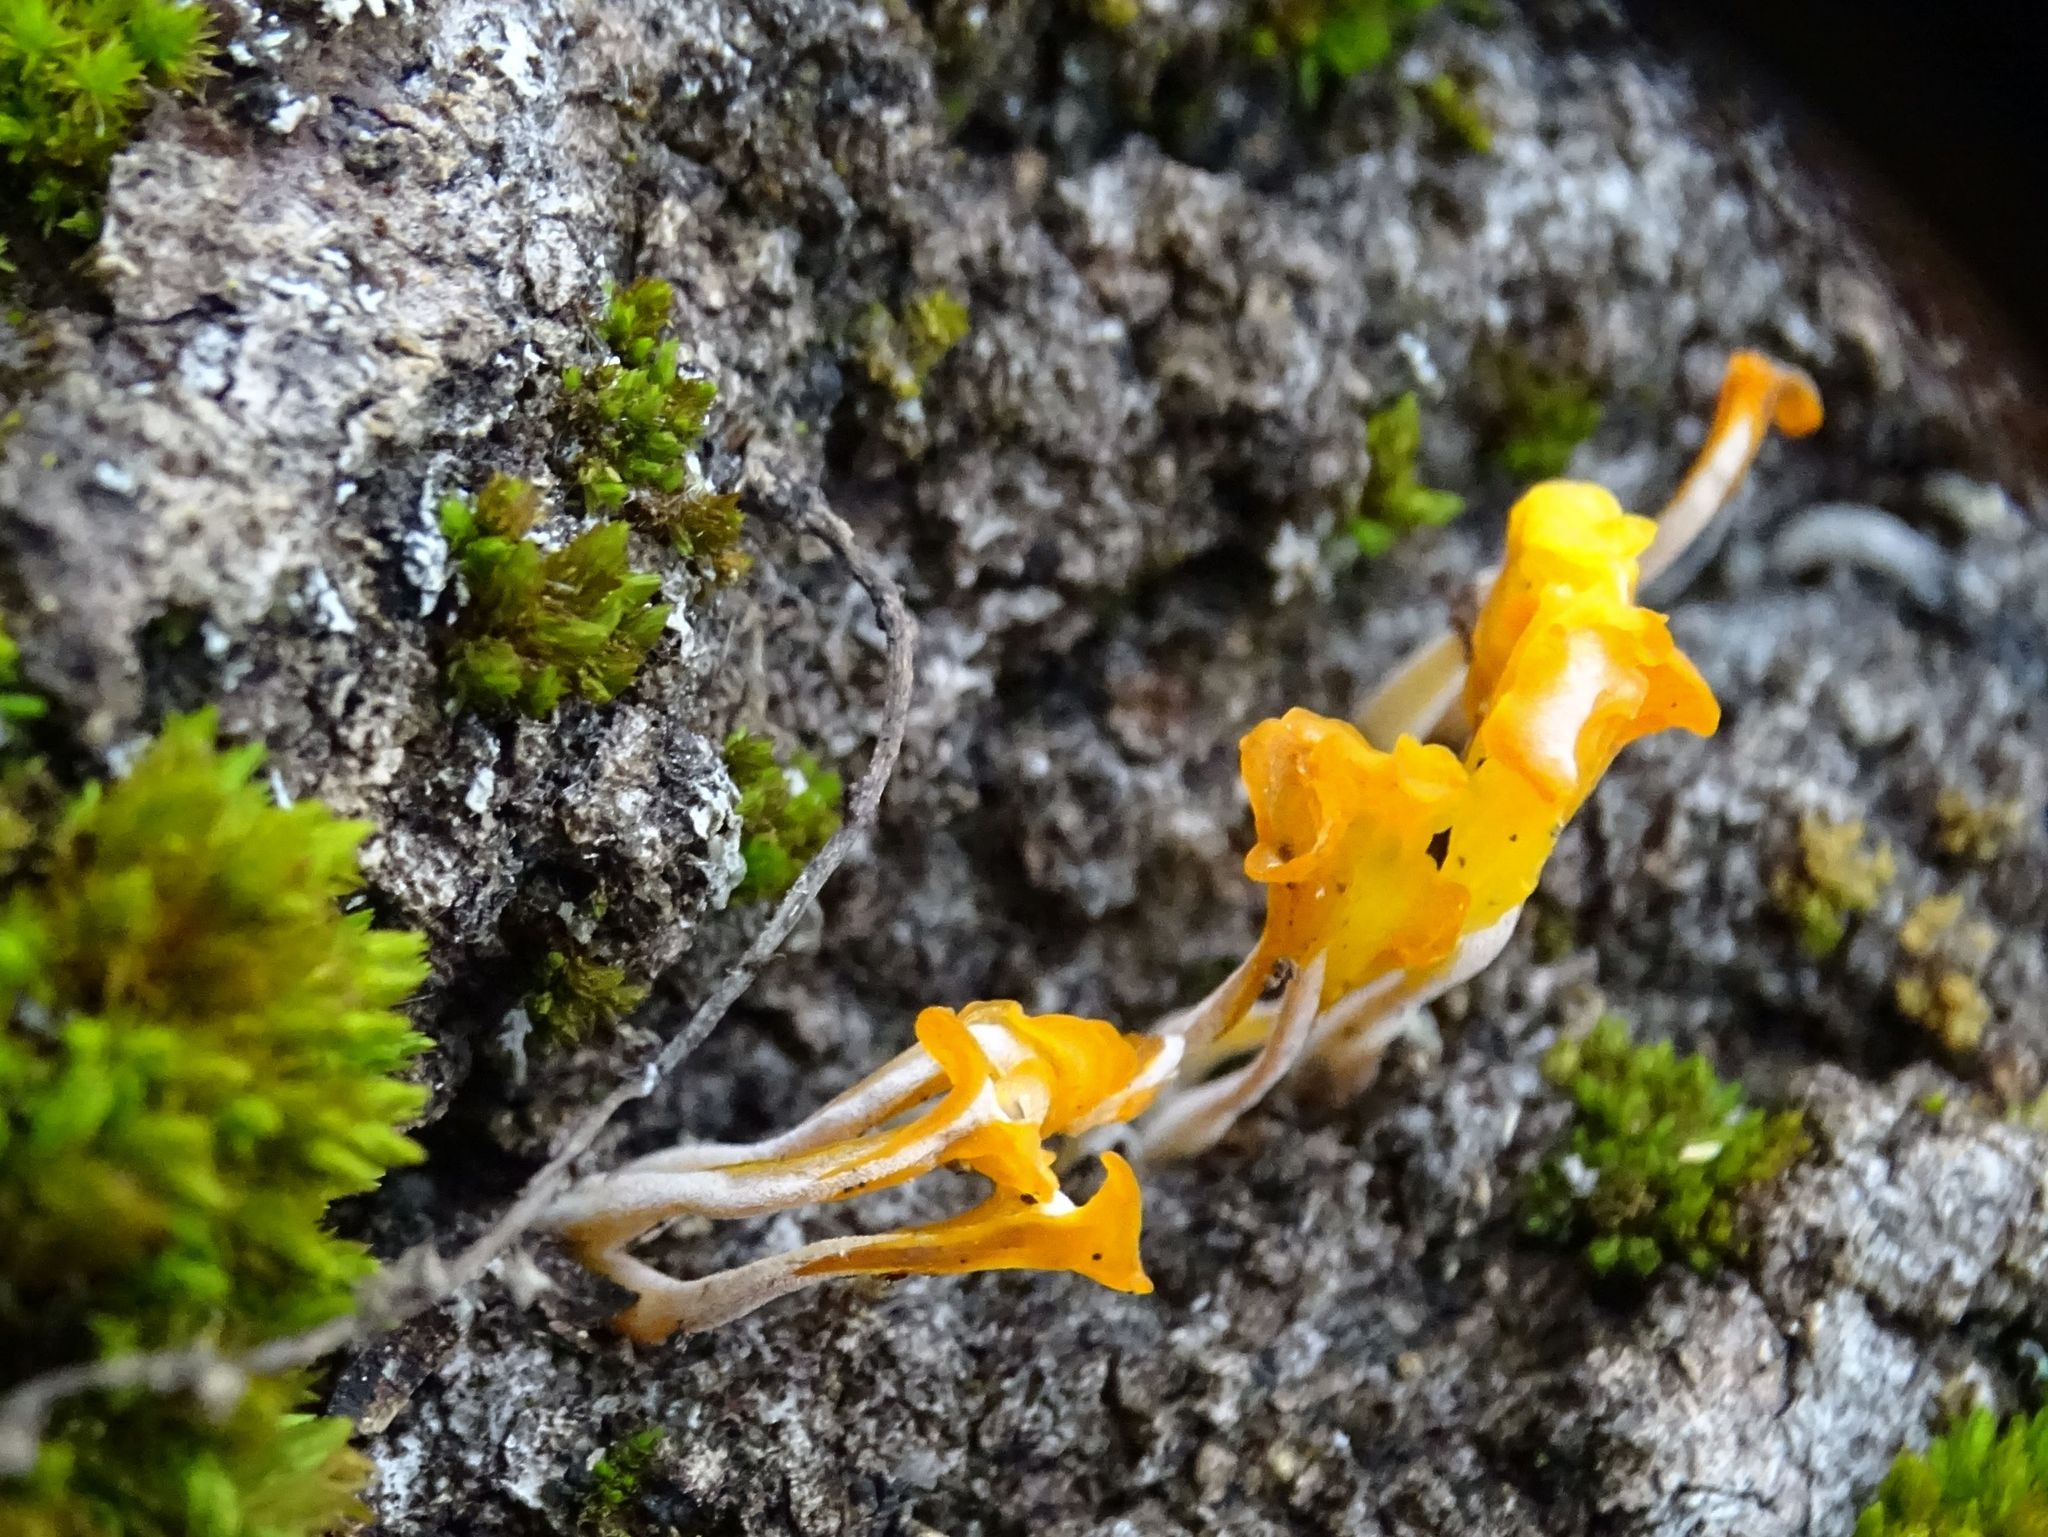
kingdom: Fungi
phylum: Basidiomycota
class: Dacrymycetes
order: Dacrymycetales
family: Dacrymycetaceae
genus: Dacrymyces
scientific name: Dacrymyces spathularius
